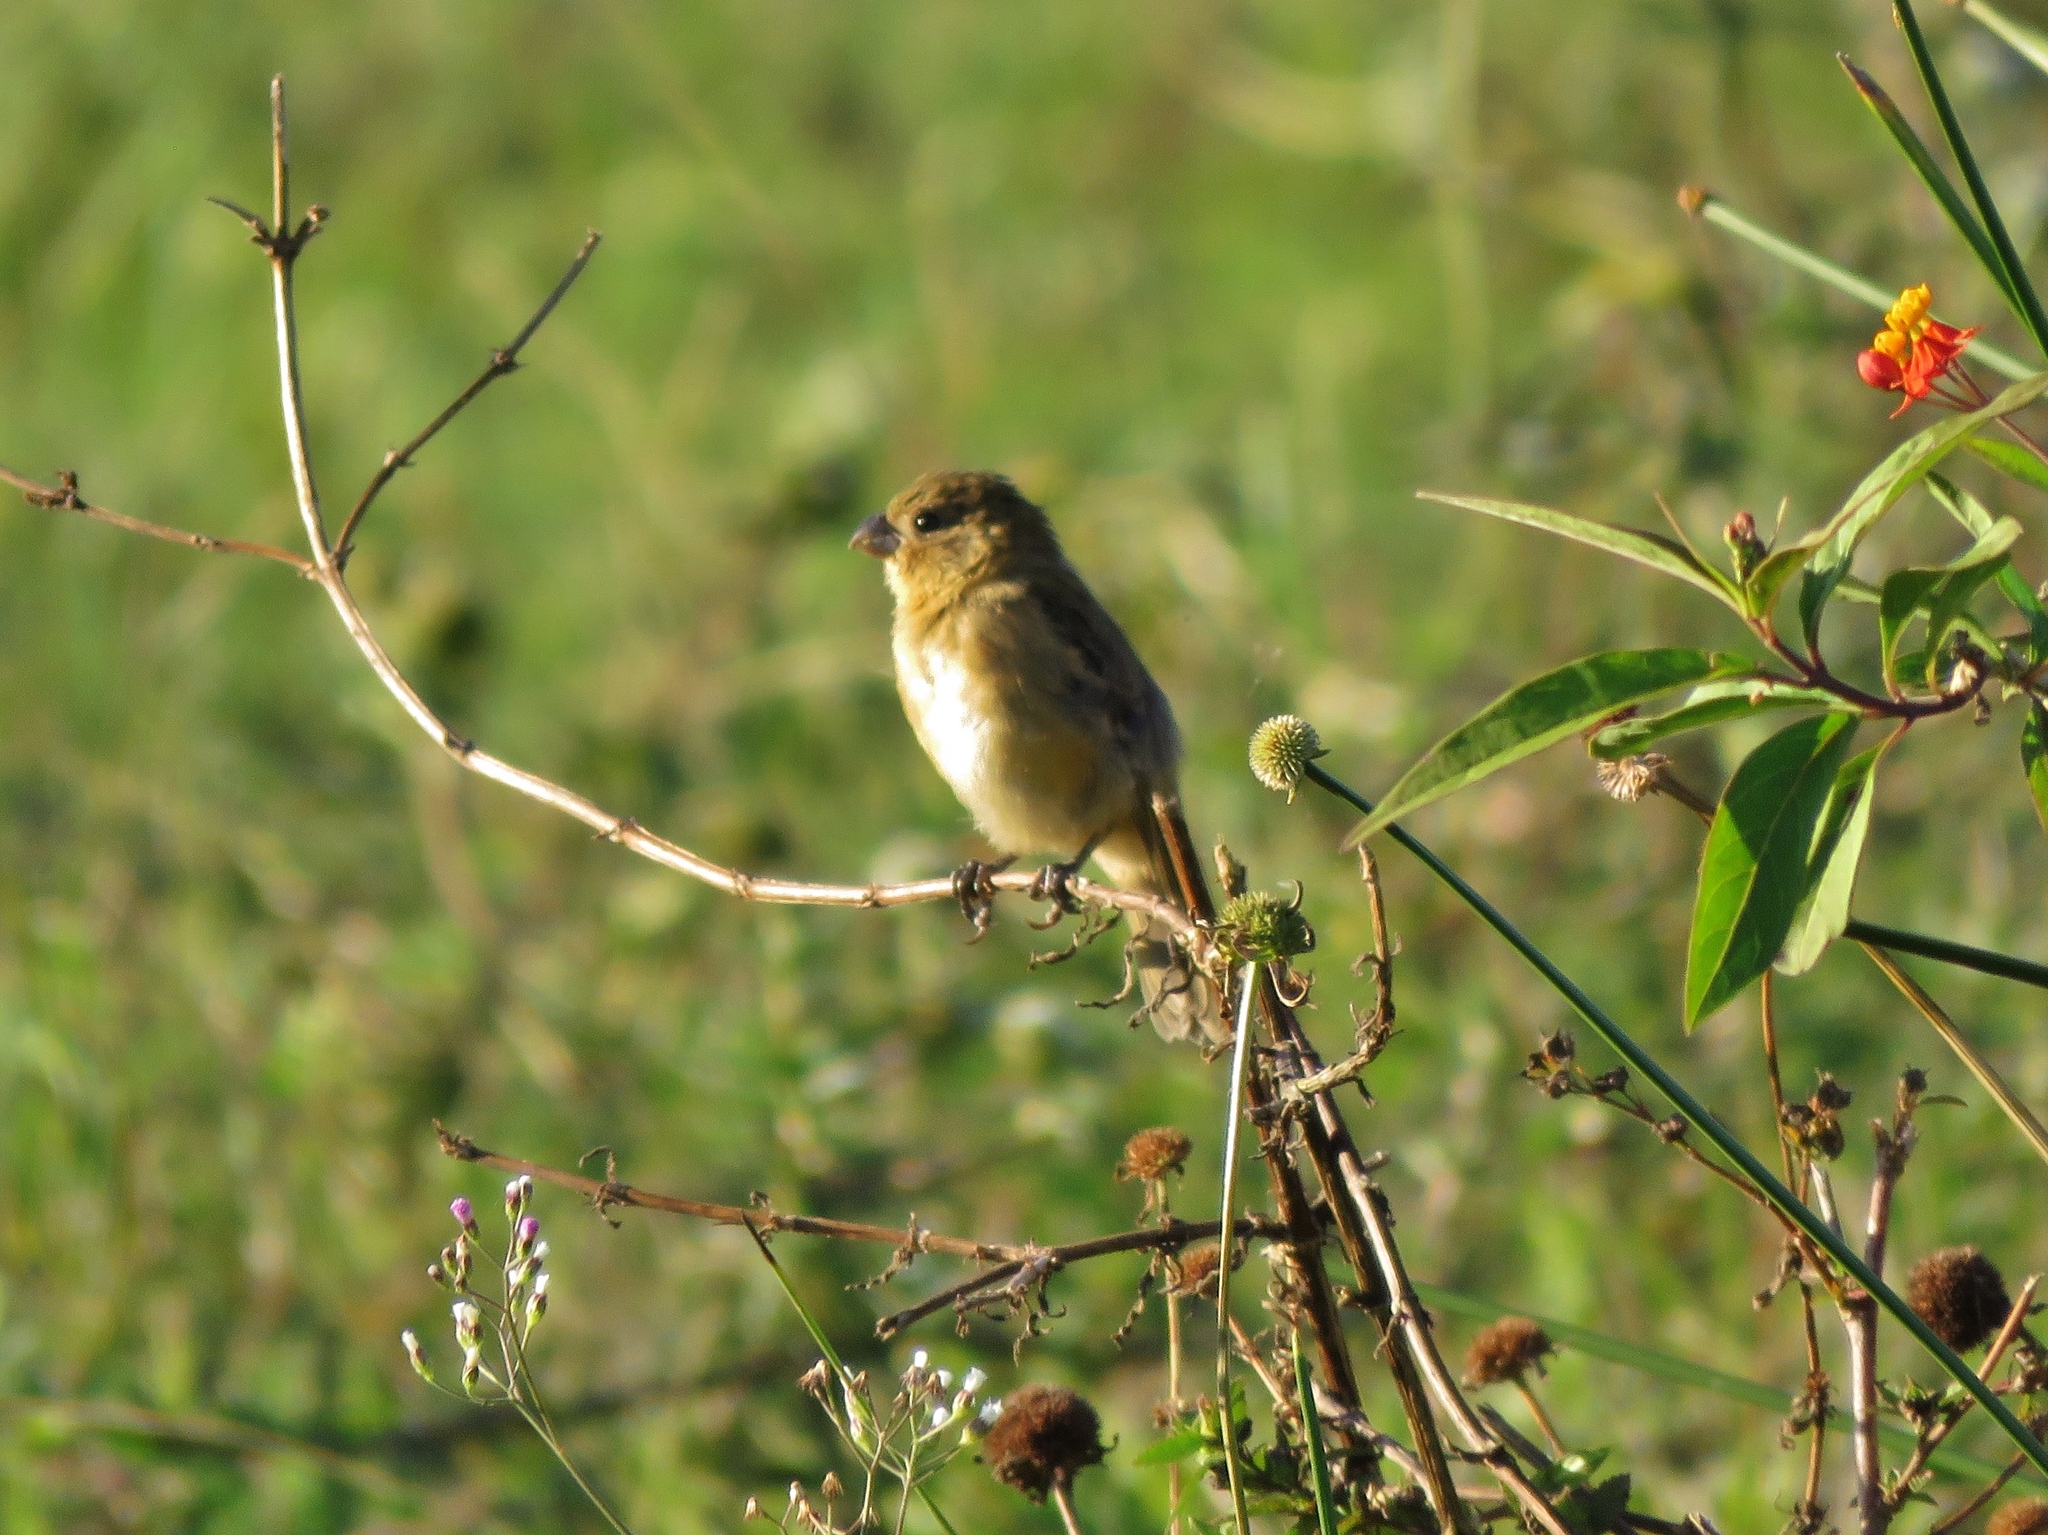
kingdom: Animalia
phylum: Chordata
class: Aves
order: Passeriformes
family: Thraupidae
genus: Sporophila
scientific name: Sporophila morelleti
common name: Morelet's seedeater
